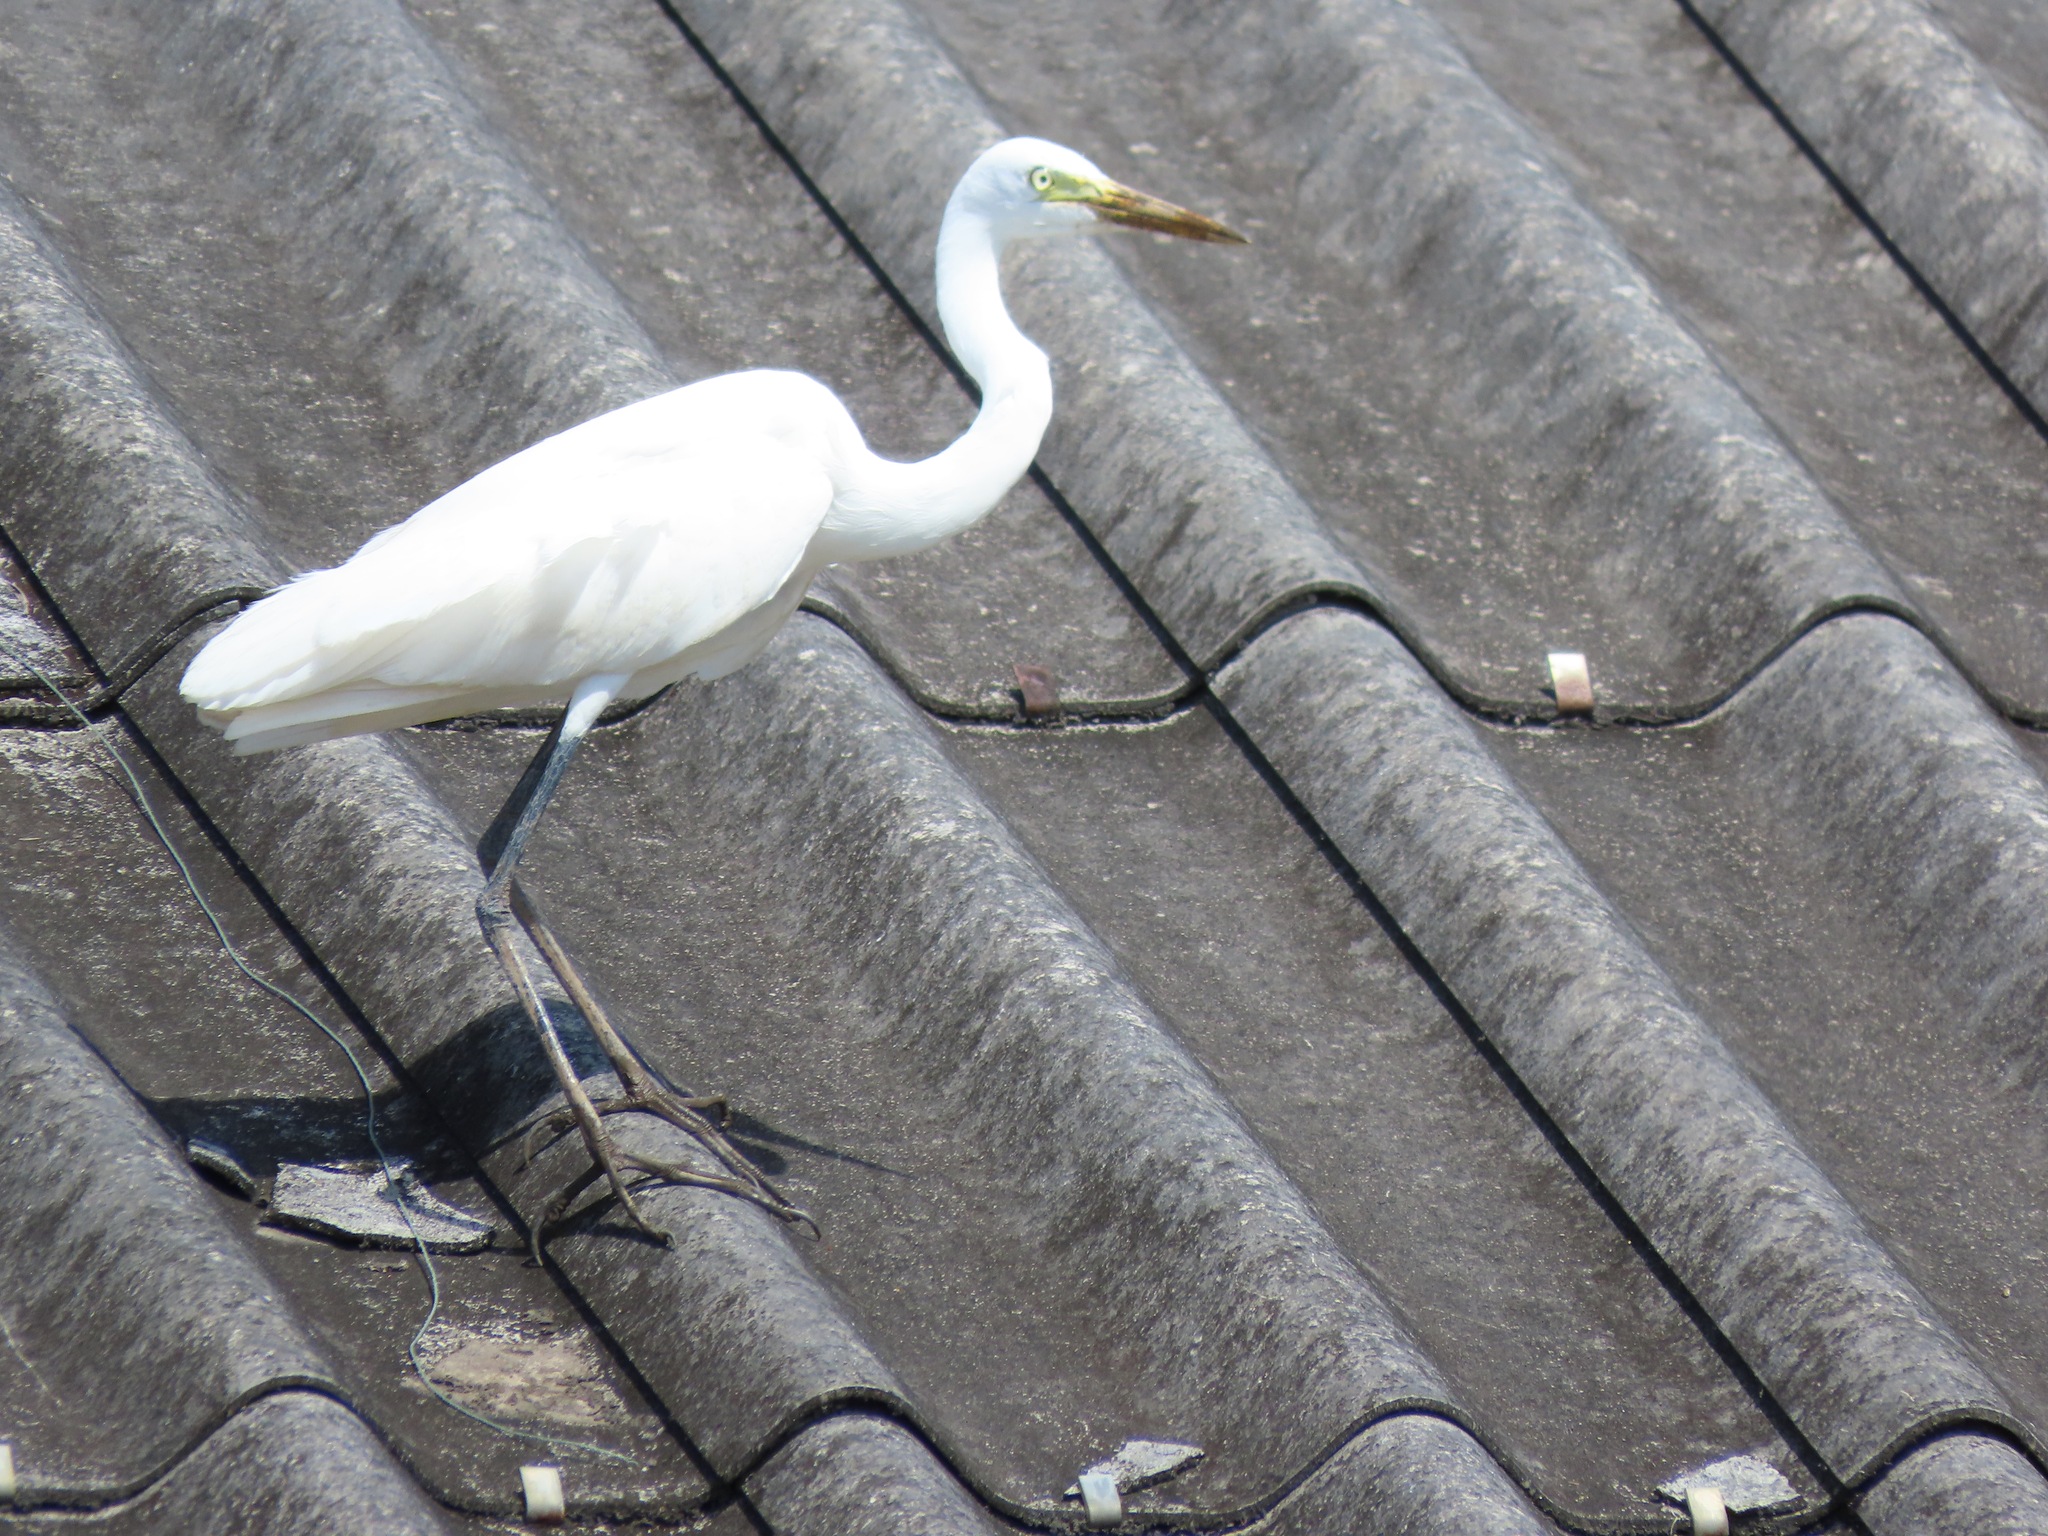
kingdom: Animalia
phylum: Chordata
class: Aves
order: Pelecaniformes
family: Ardeidae
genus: Egretta
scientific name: Egretta intermedia
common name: Intermediate egret
